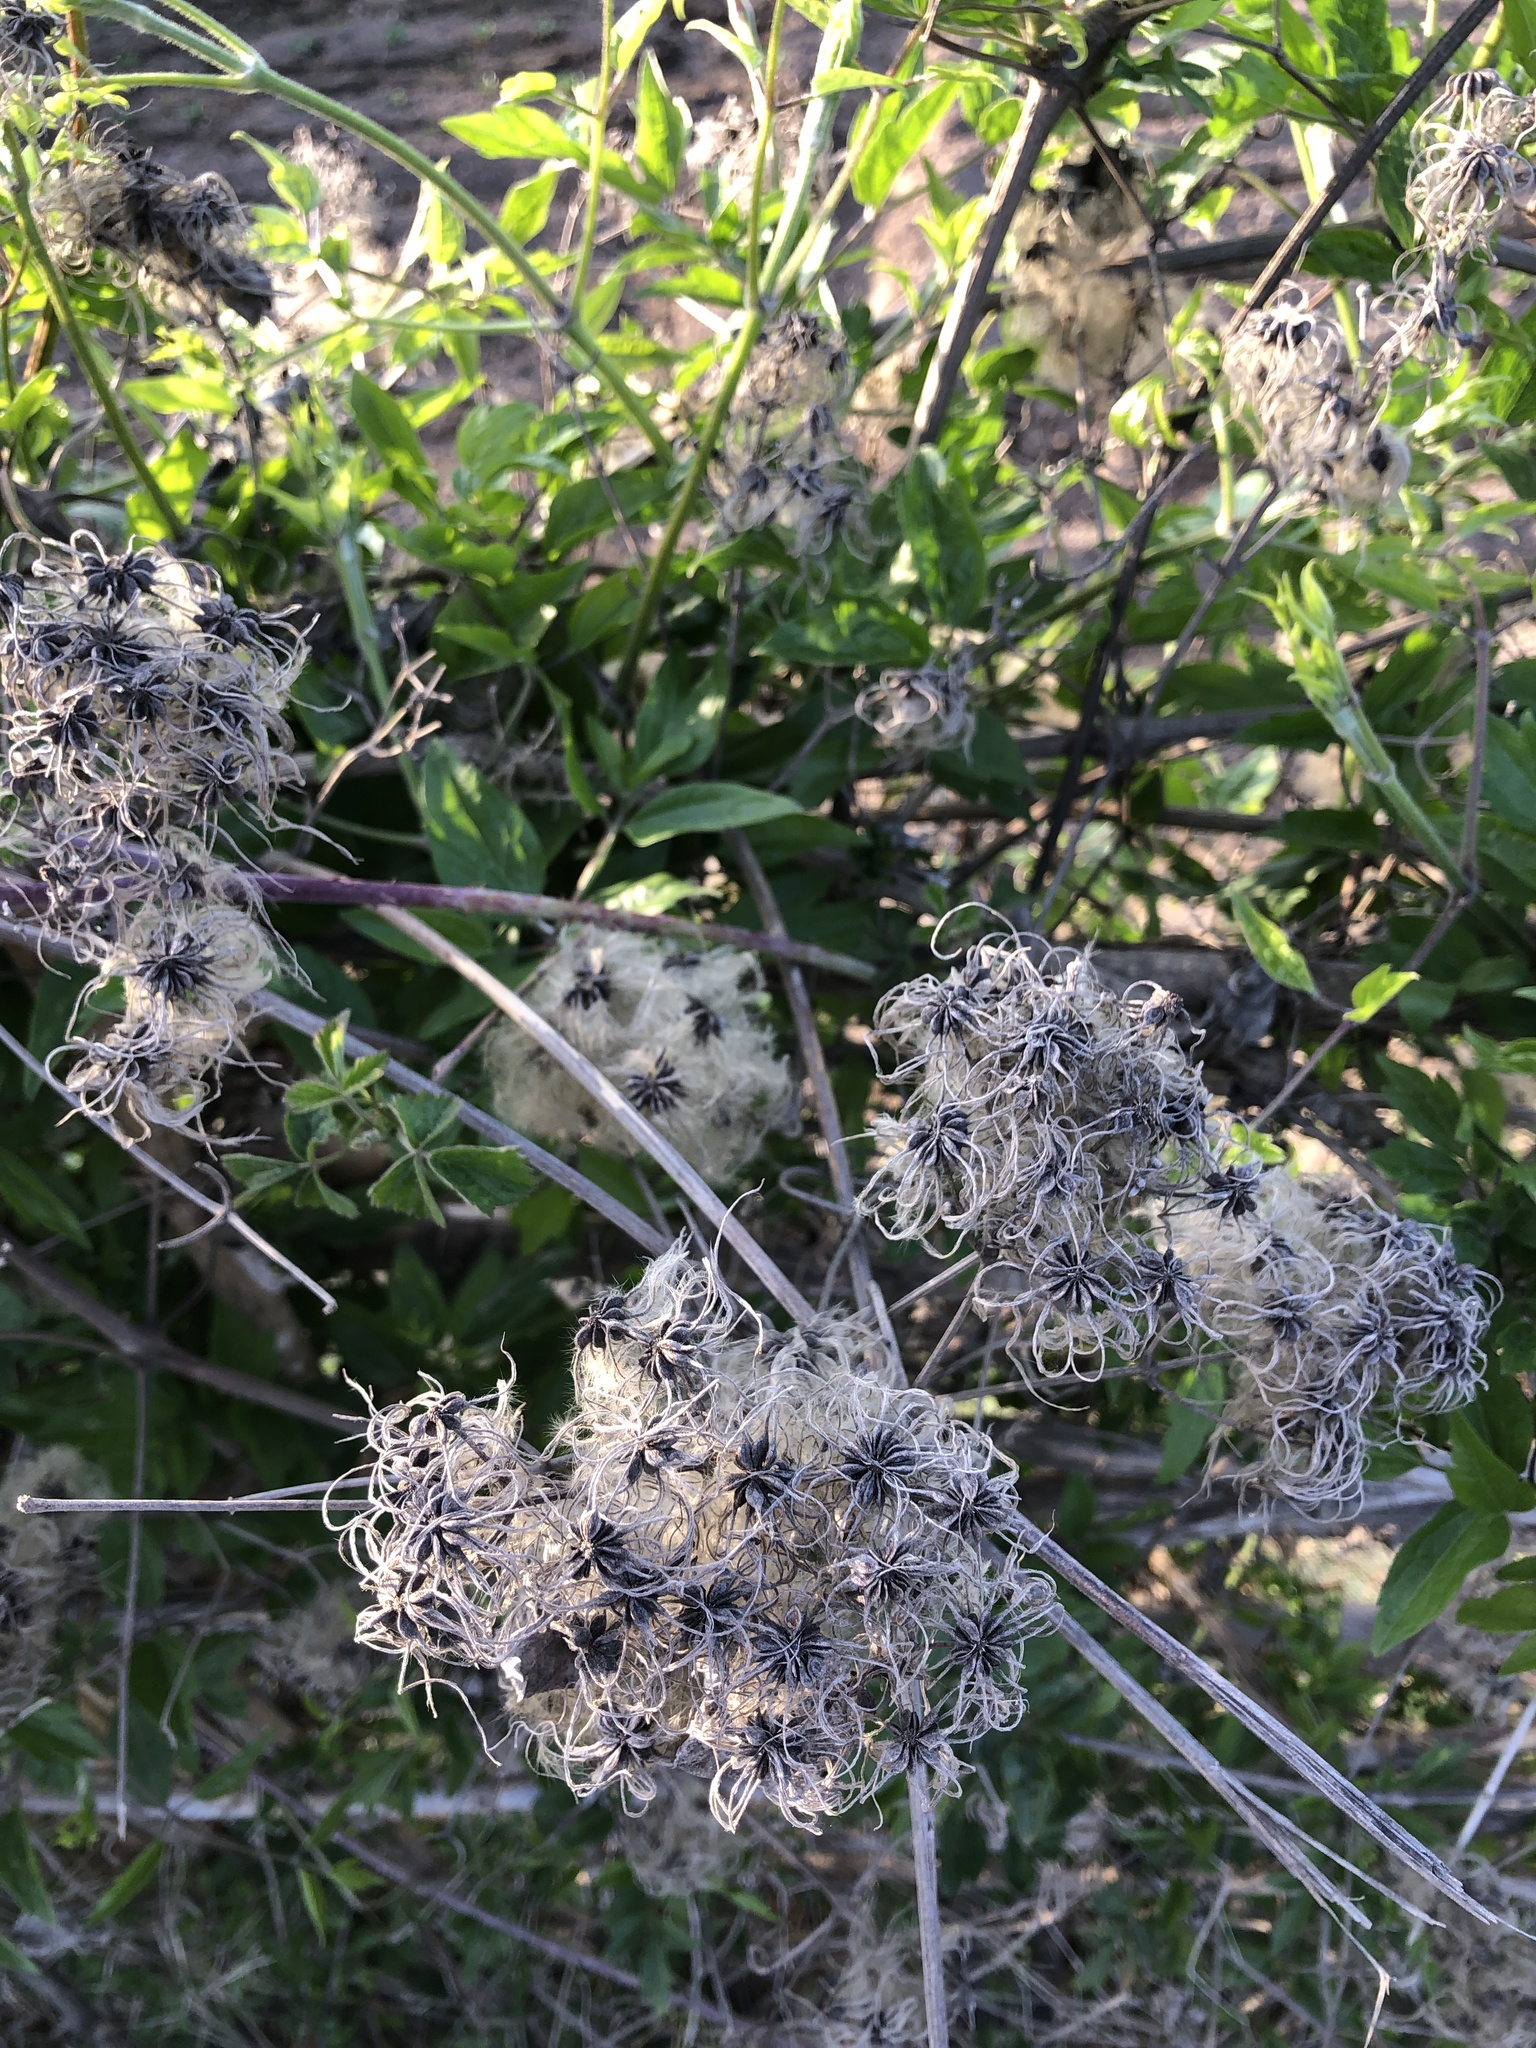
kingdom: Plantae
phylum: Tracheophyta
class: Magnoliopsida
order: Ranunculales
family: Ranunculaceae
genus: Clematis
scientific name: Clematis vitalba
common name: Evergreen clematis
